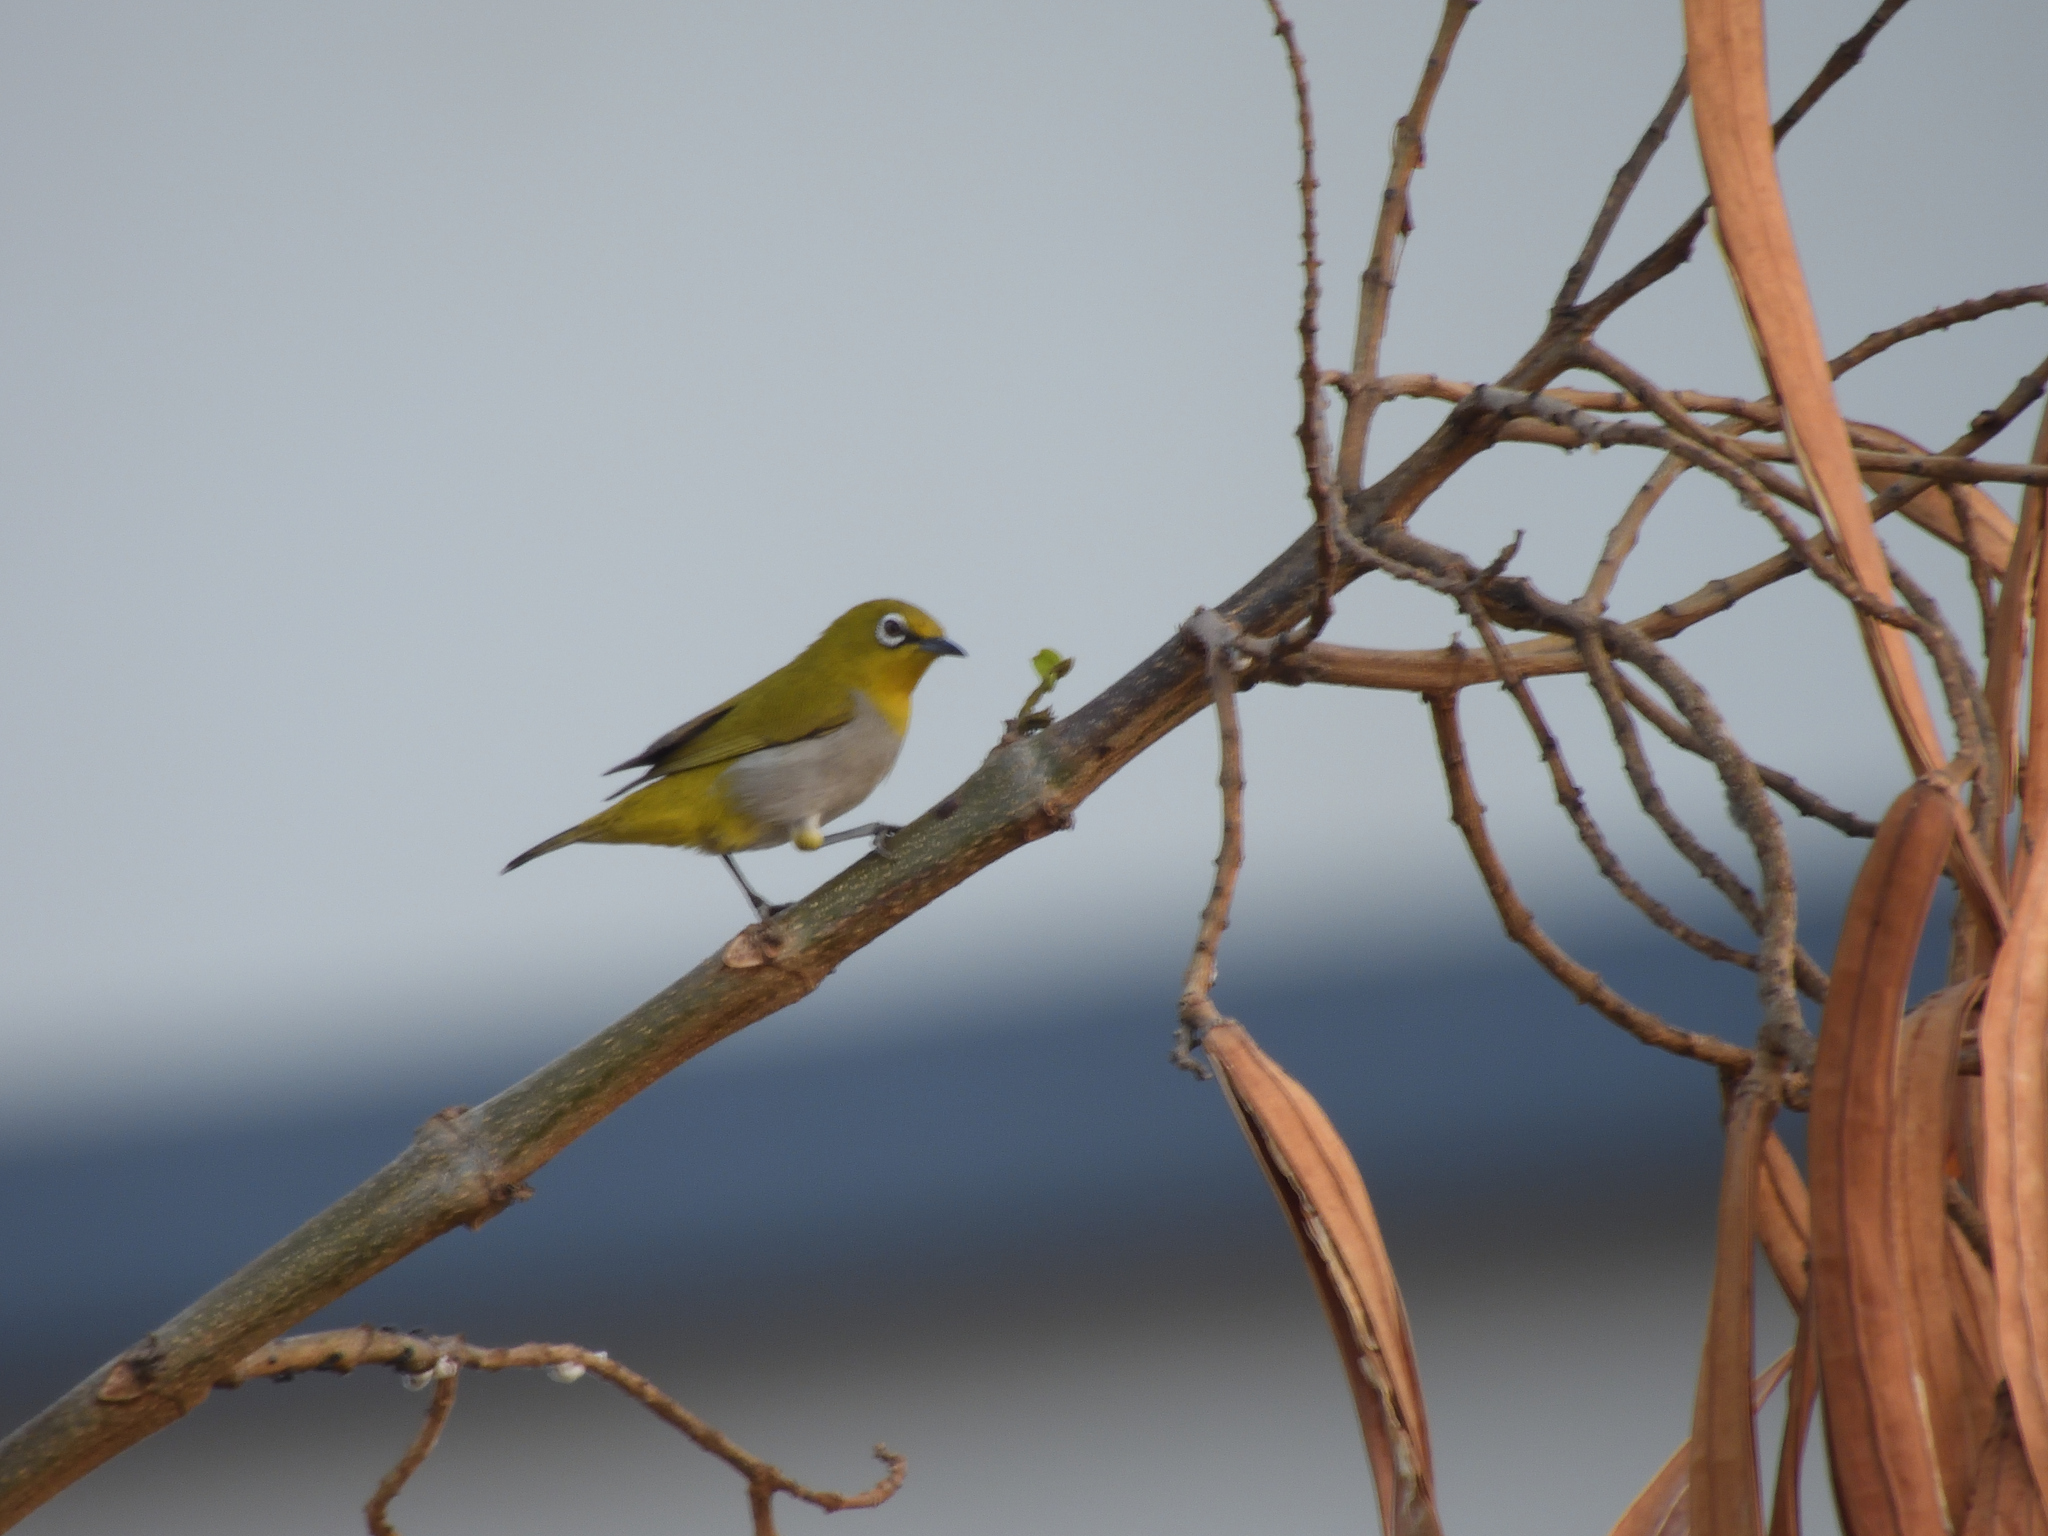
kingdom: Animalia
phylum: Chordata
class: Aves
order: Passeriformes
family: Zosteropidae
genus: Zosterops
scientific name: Zosterops palpebrosus
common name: Oriental white-eye
